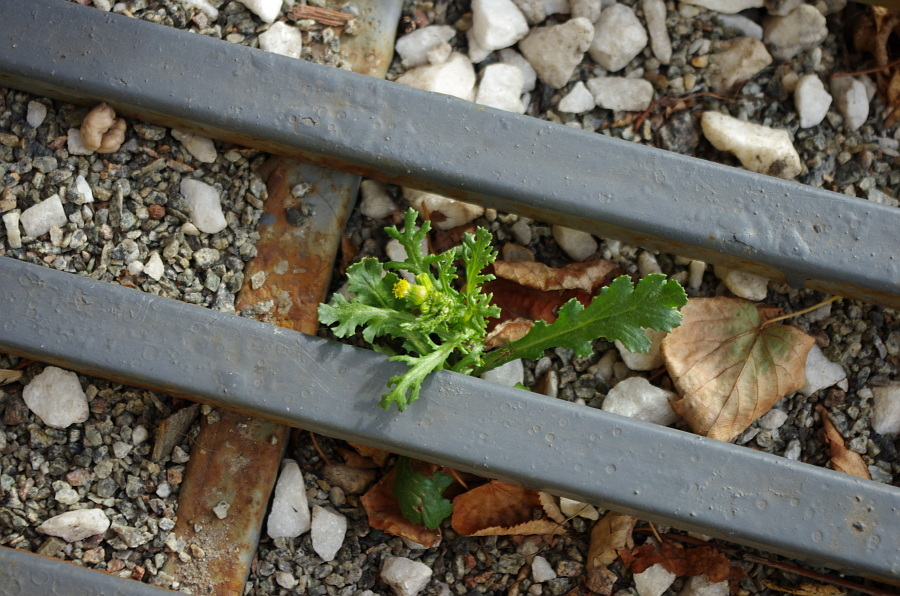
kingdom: Plantae
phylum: Tracheophyta
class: Magnoliopsida
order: Asterales
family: Asteraceae
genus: Senecio
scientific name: Senecio vulgaris
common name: Old-man-in-the-spring
